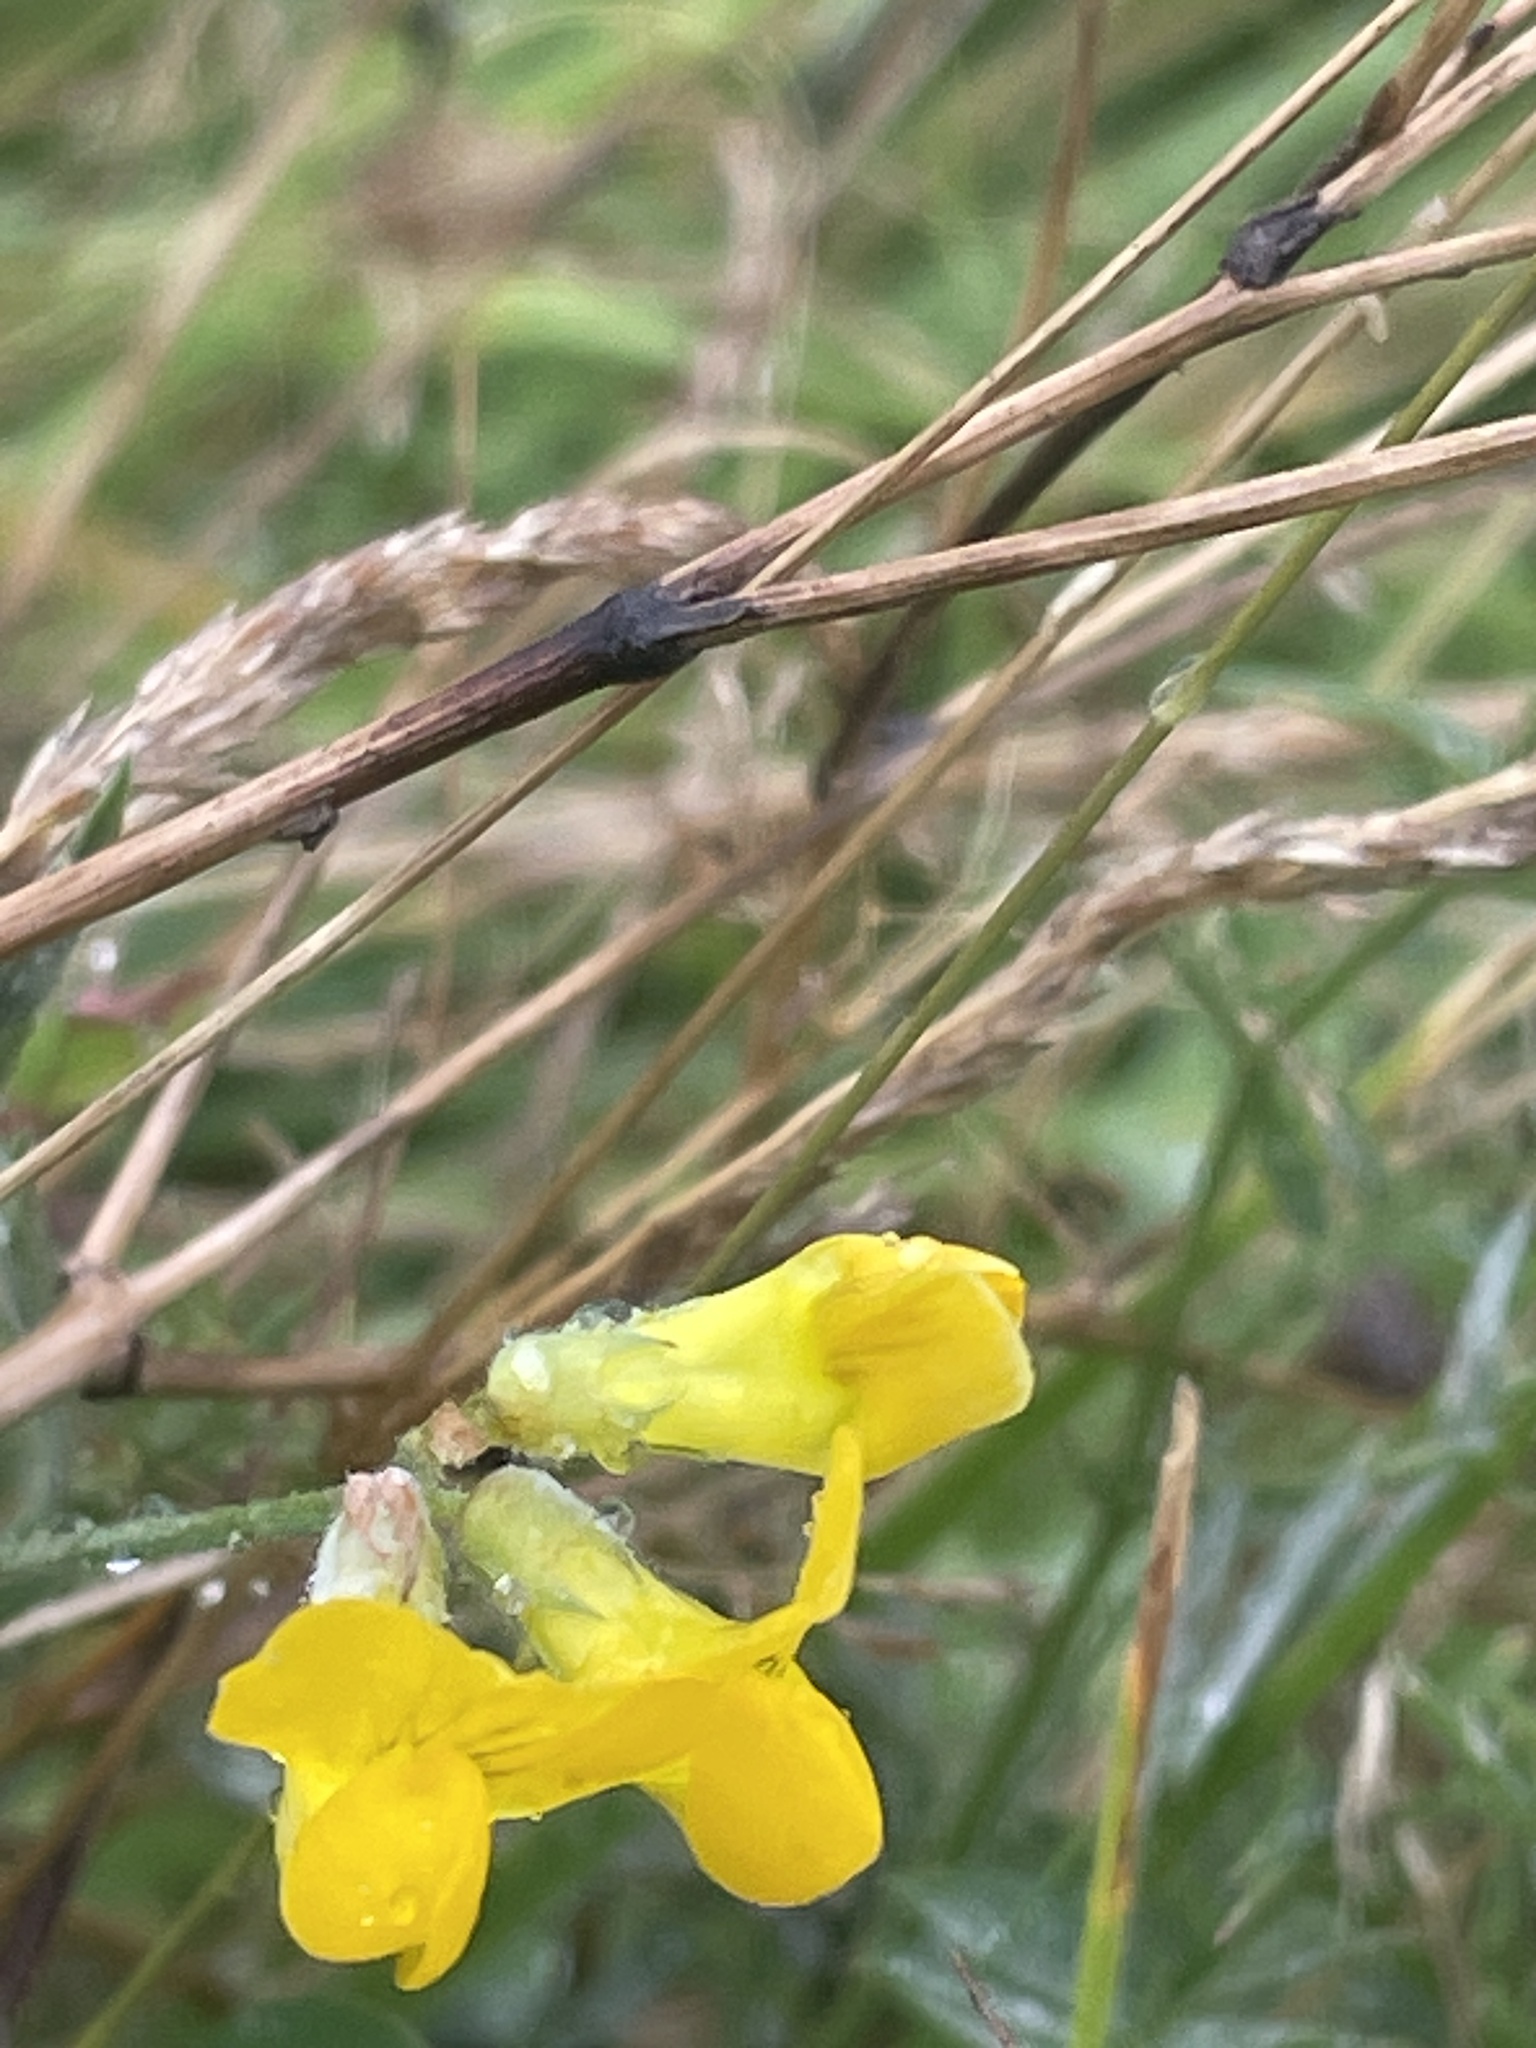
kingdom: Plantae
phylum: Tracheophyta
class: Magnoliopsida
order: Fabales
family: Fabaceae
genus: Lathyrus
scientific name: Lathyrus pratensis
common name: Meadow vetchling
